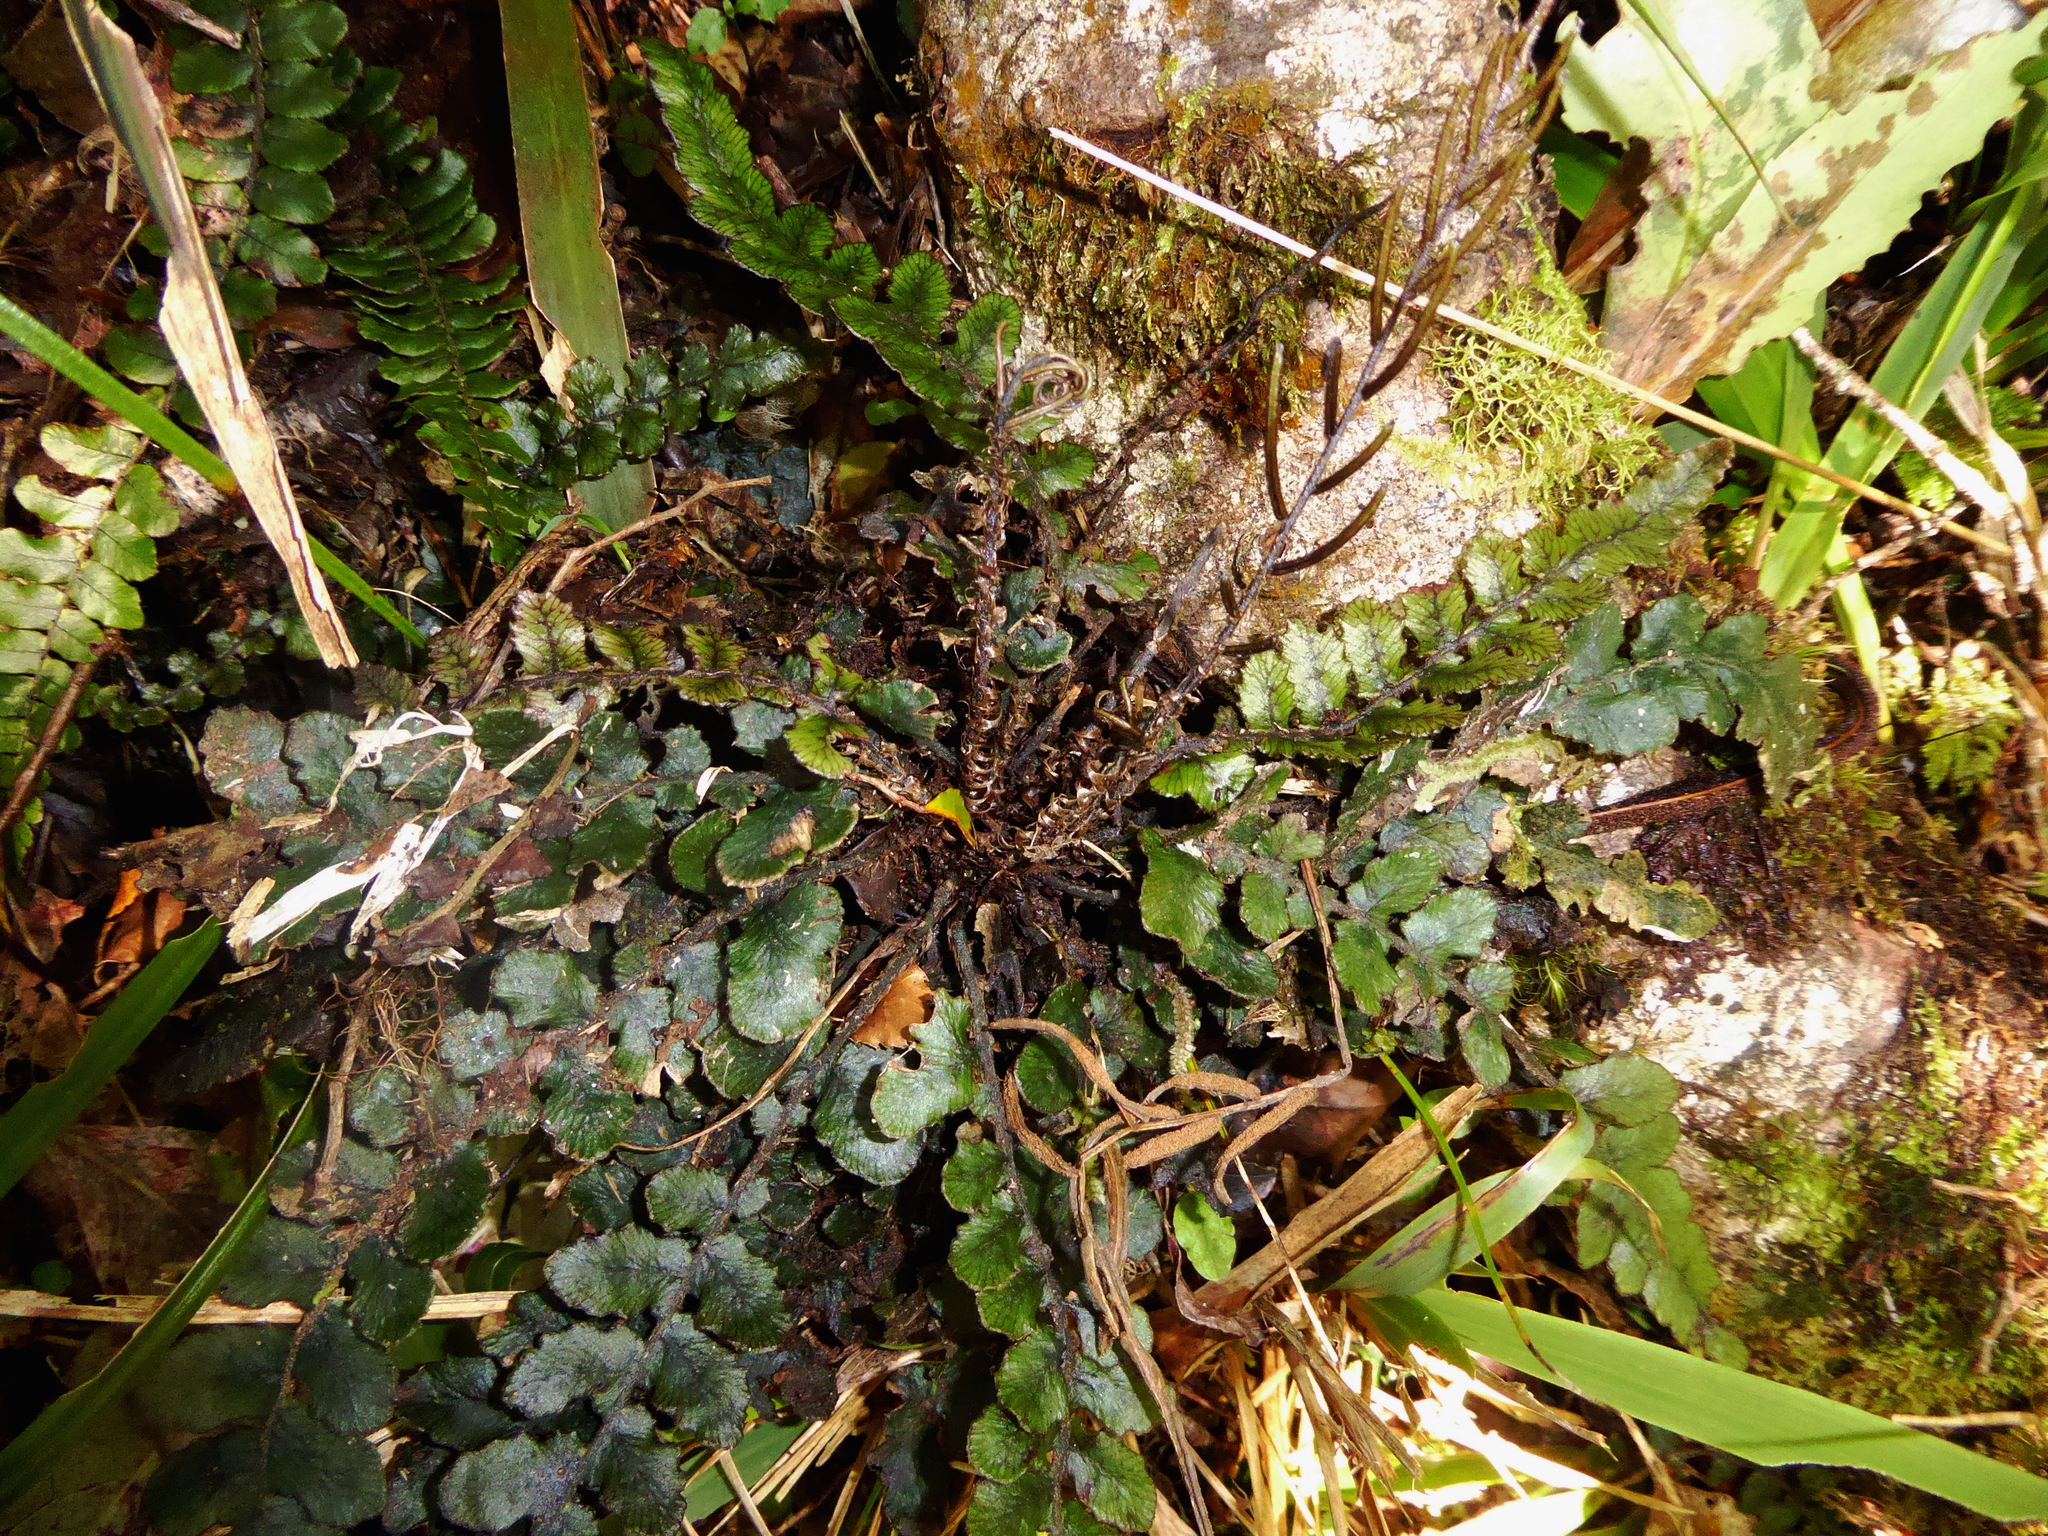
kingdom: Plantae
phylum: Tracheophyta
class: Polypodiopsida
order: Polypodiales
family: Blechnaceae
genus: Cranfillia
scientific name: Cranfillia nigra
